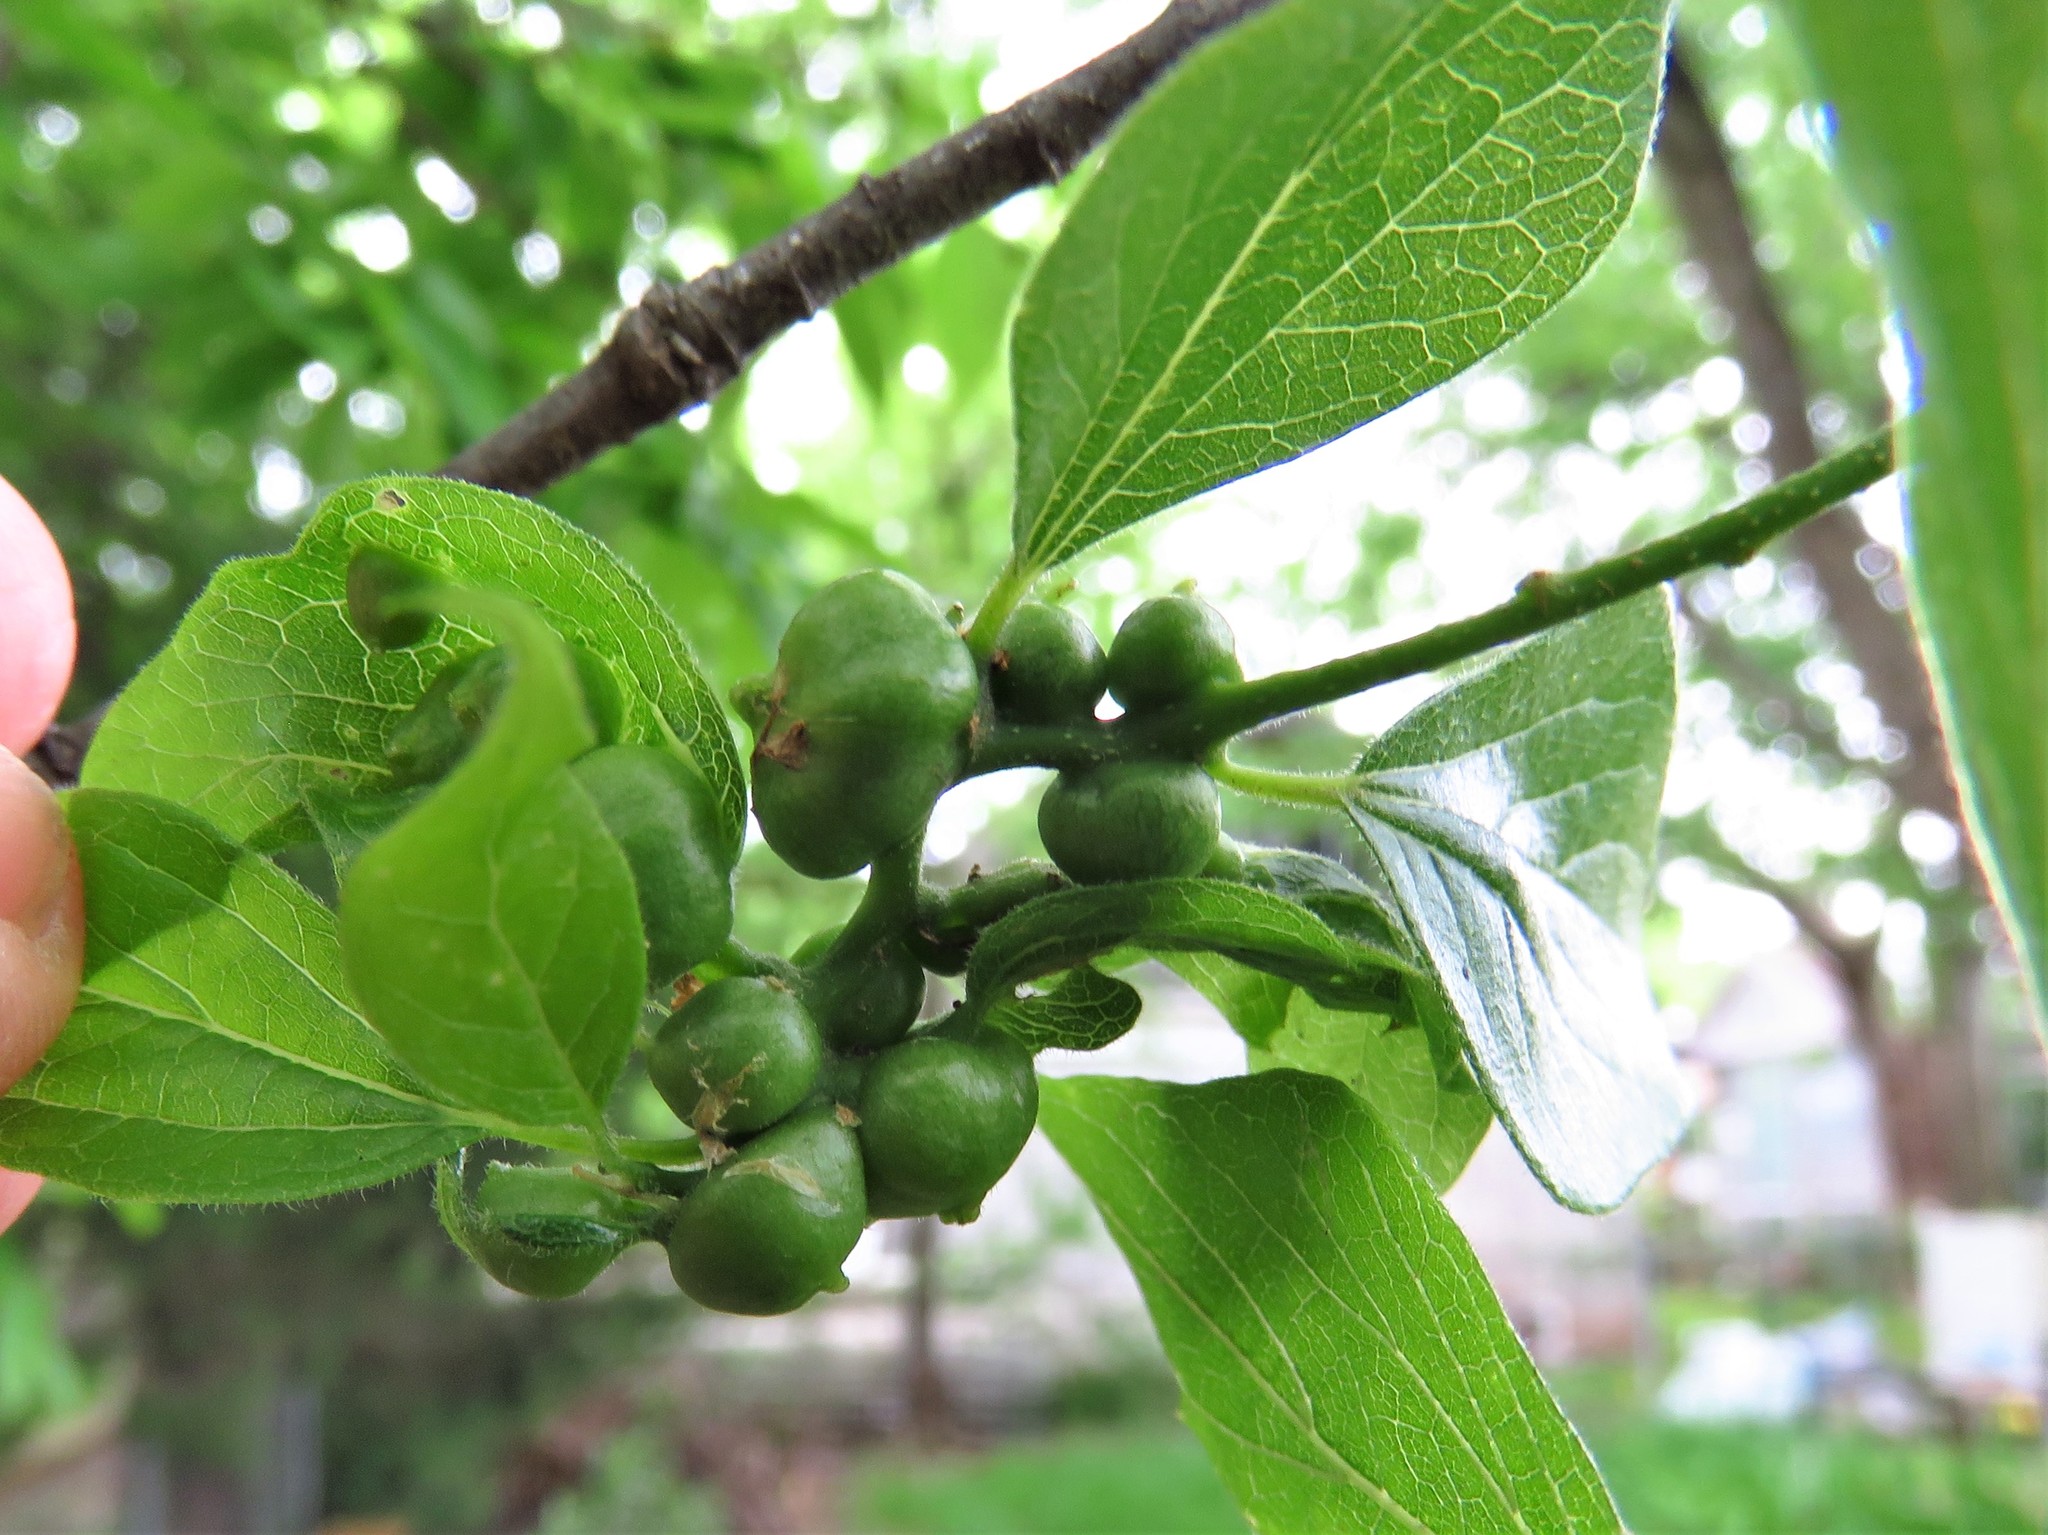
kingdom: Animalia
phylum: Arthropoda
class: Insecta
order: Diptera
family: Cecidomyiidae
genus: Celticecis
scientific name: Celticecis connata
